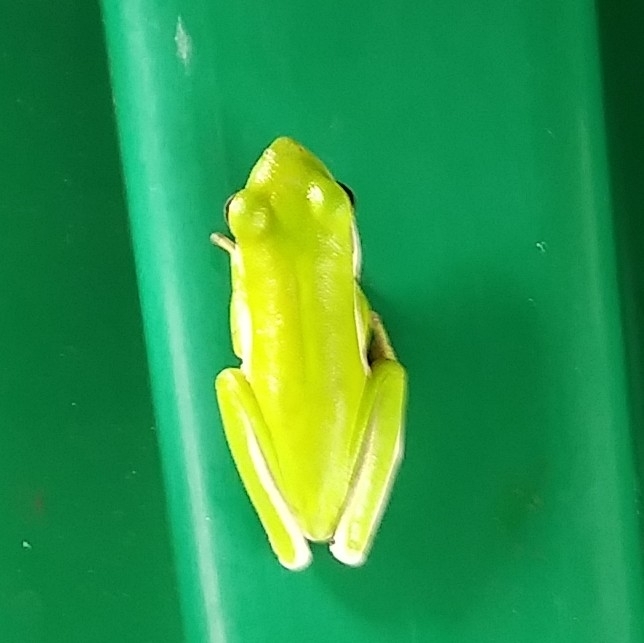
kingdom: Animalia
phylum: Chordata
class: Amphibia
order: Anura
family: Hylidae
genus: Dryophytes
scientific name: Dryophytes cinereus
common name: Green treefrog
